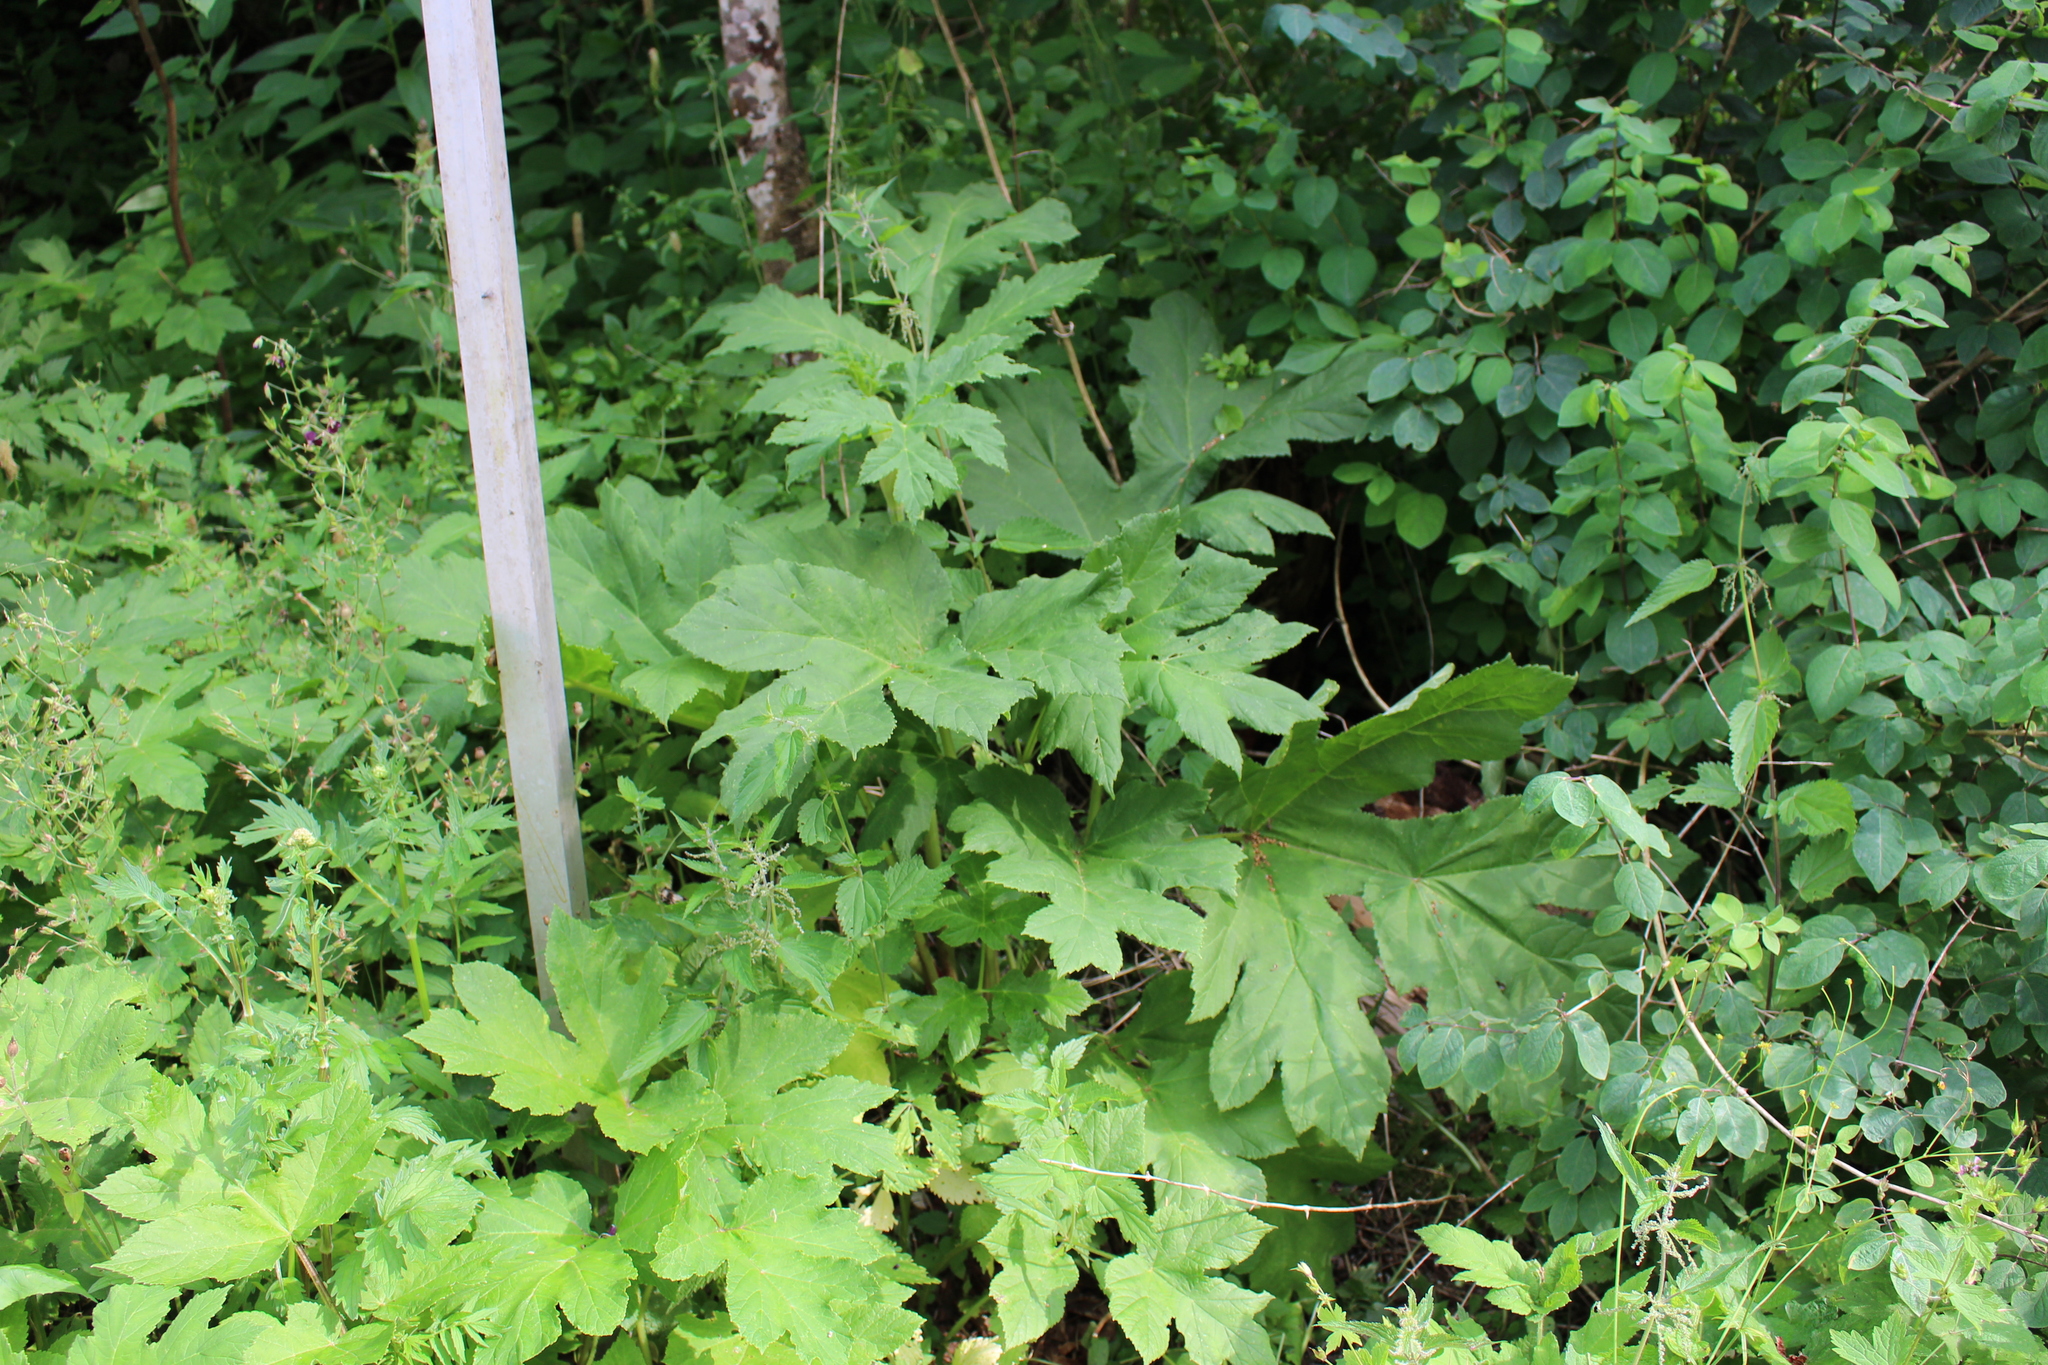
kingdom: Plantae
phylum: Tracheophyta
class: Magnoliopsida
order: Apiales
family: Apiaceae
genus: Heracleum
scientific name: Heracleum mantegazzianum
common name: Giant hogweed
